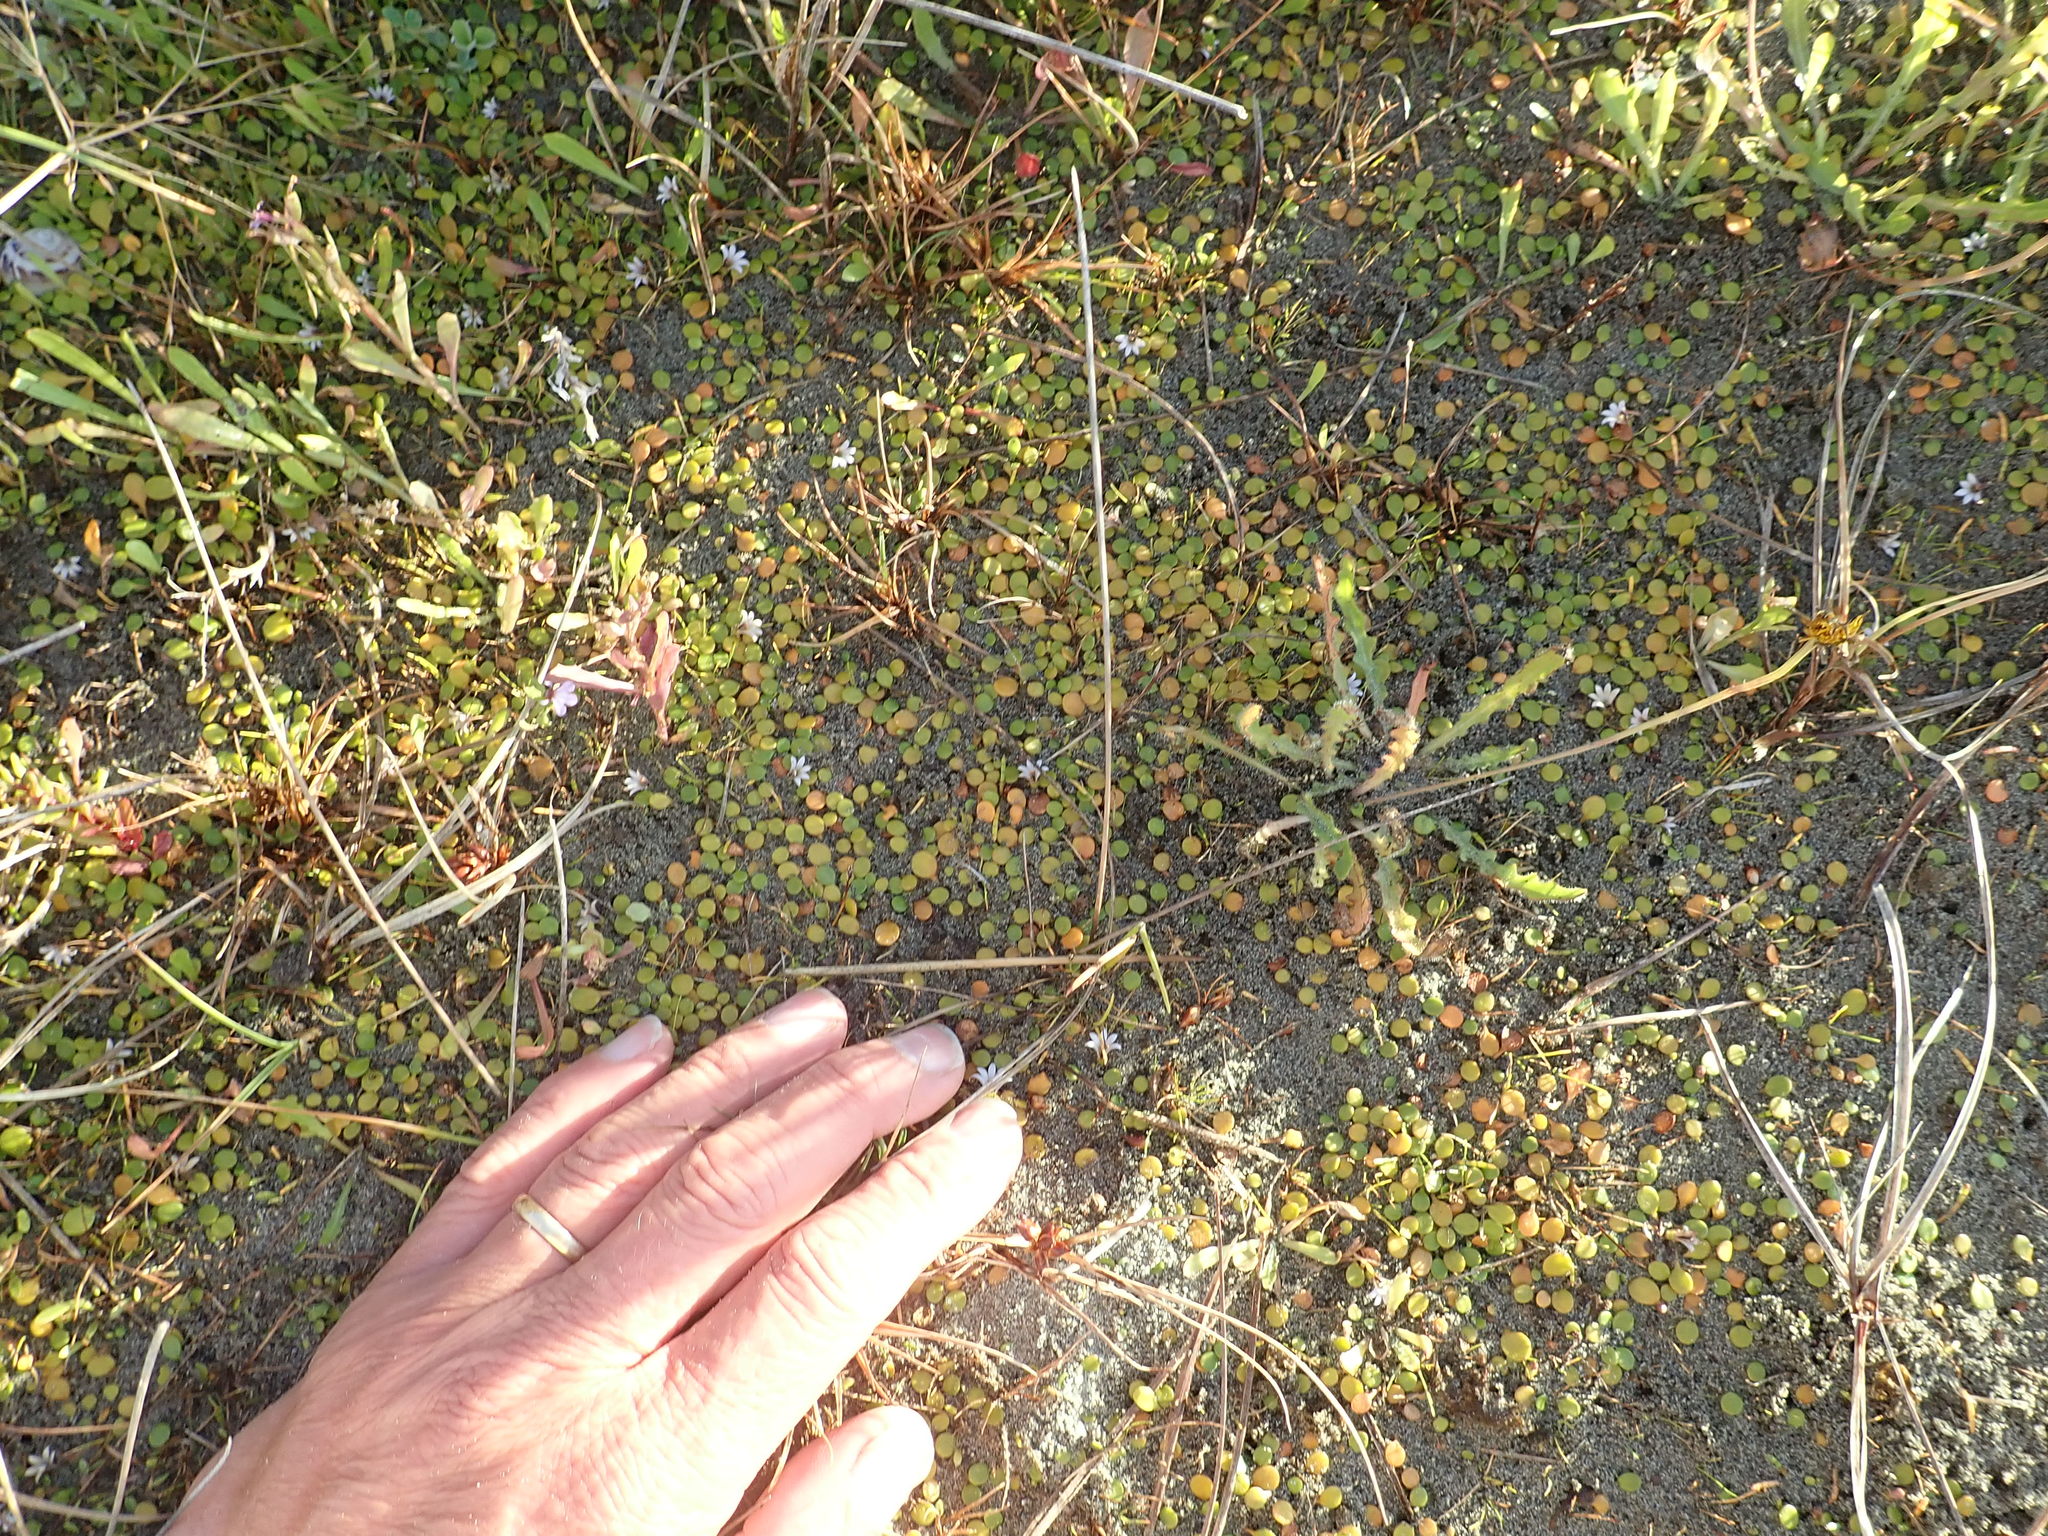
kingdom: Plantae
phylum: Tracheophyta
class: Magnoliopsida
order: Asterales
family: Goodeniaceae
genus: Goodenia
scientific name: Goodenia heenanii
